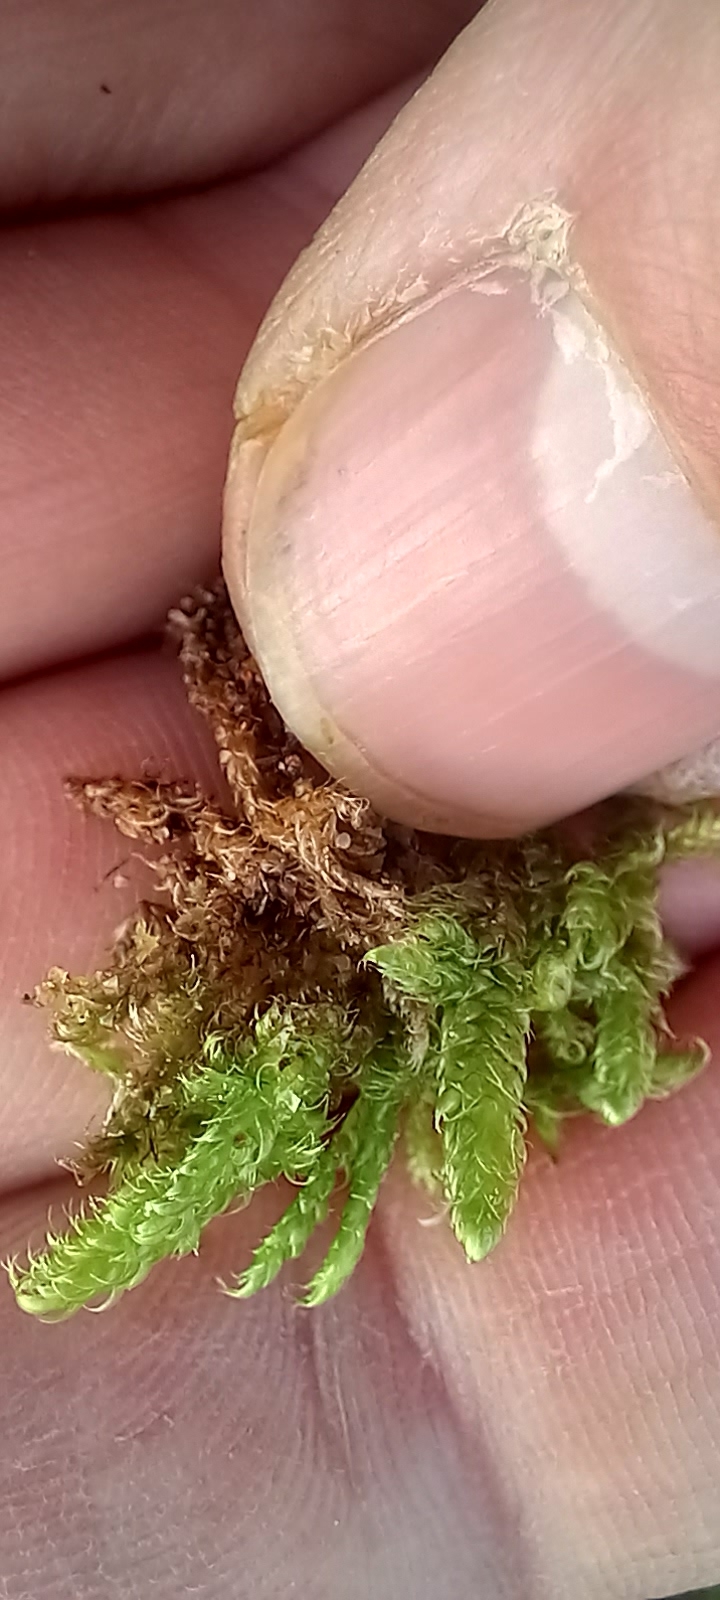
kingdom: Plantae
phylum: Bryophyta
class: Bryopsida
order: Hypnales
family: Hypnaceae
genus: Hypnum
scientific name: Hypnum cupressiforme
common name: Cypress-leaved plait-moss
